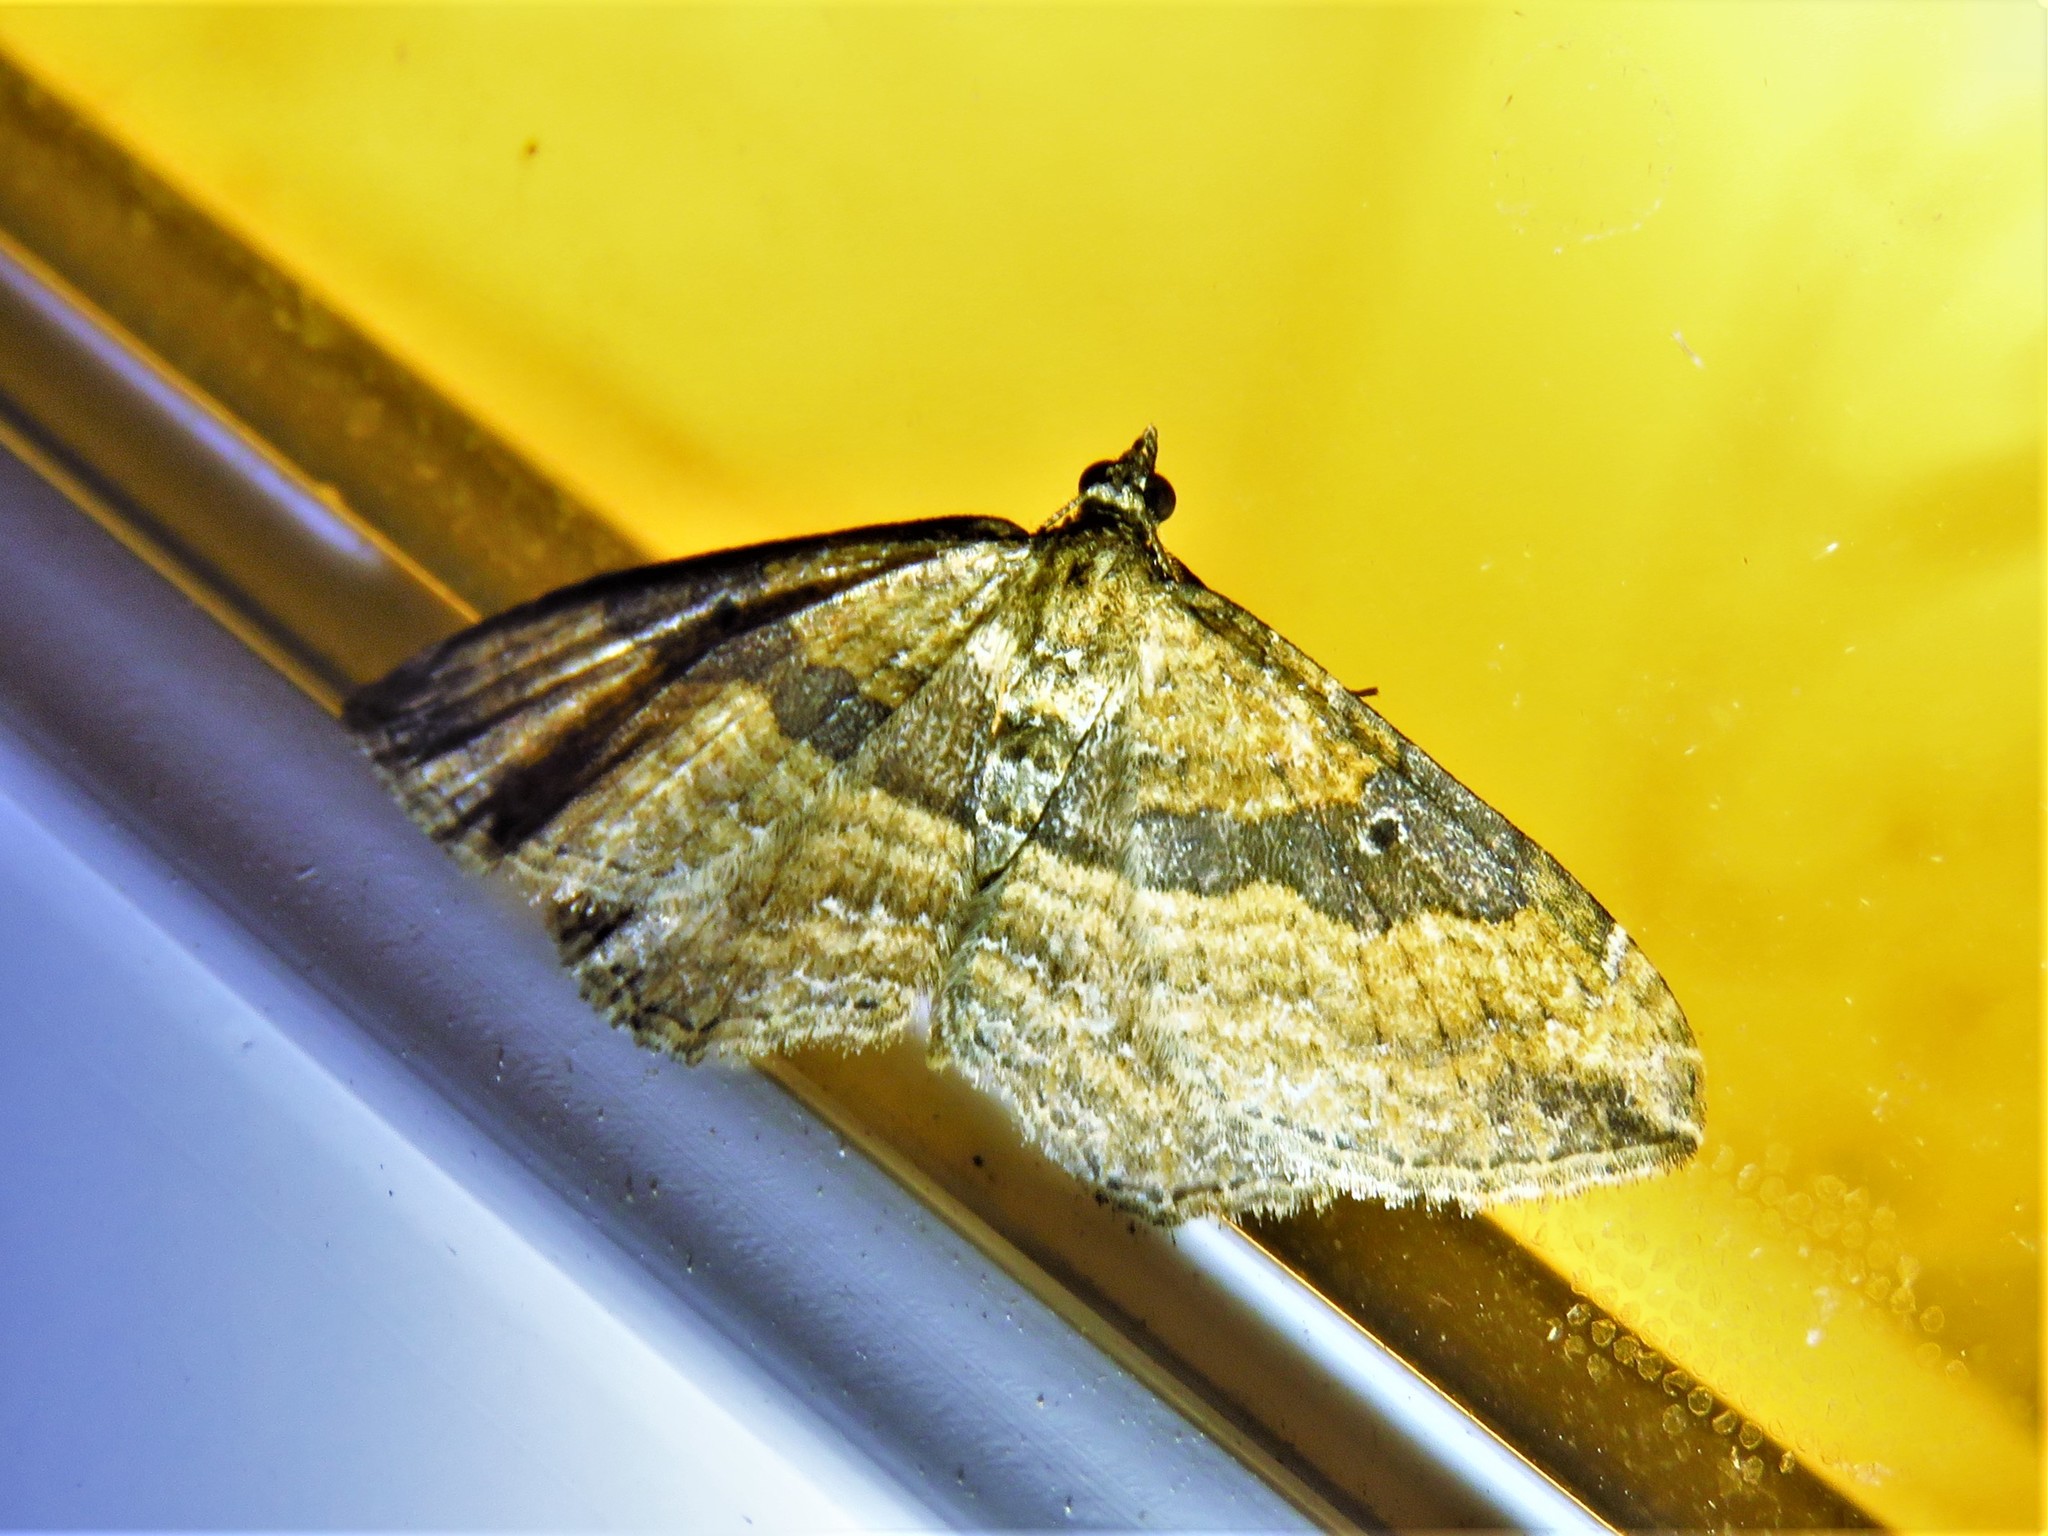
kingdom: Animalia
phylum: Arthropoda
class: Insecta
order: Lepidoptera
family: Geometridae
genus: Orthonama
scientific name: Orthonama obstipata
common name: The gem
